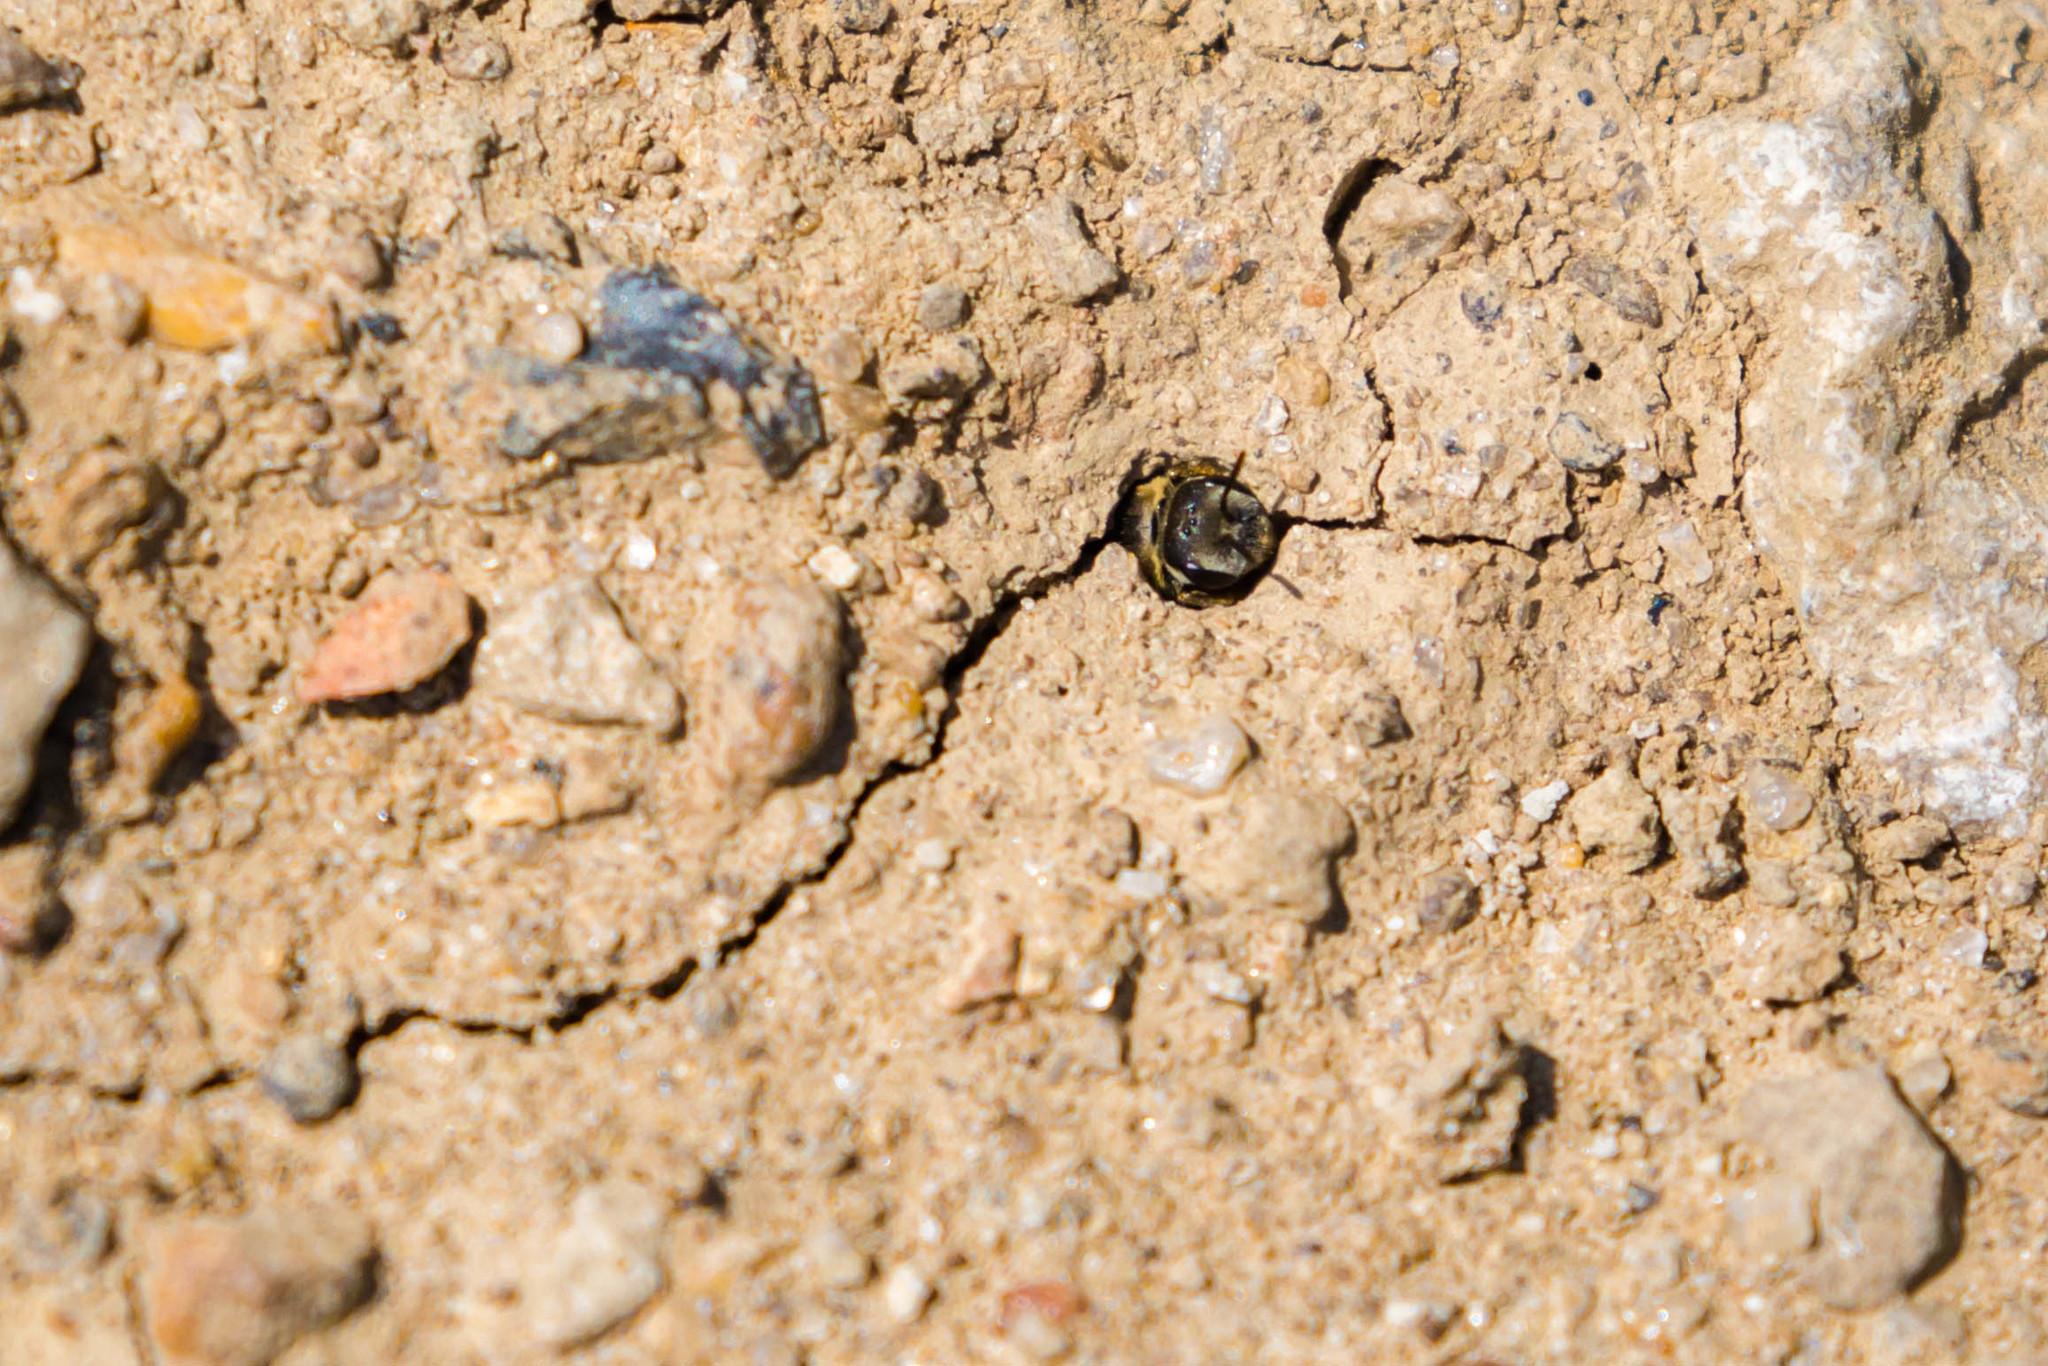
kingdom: Animalia
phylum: Arthropoda
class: Insecta
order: Hymenoptera
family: Halictidae
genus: Halictus
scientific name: Halictus ligatus
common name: Ligated furrow bee
